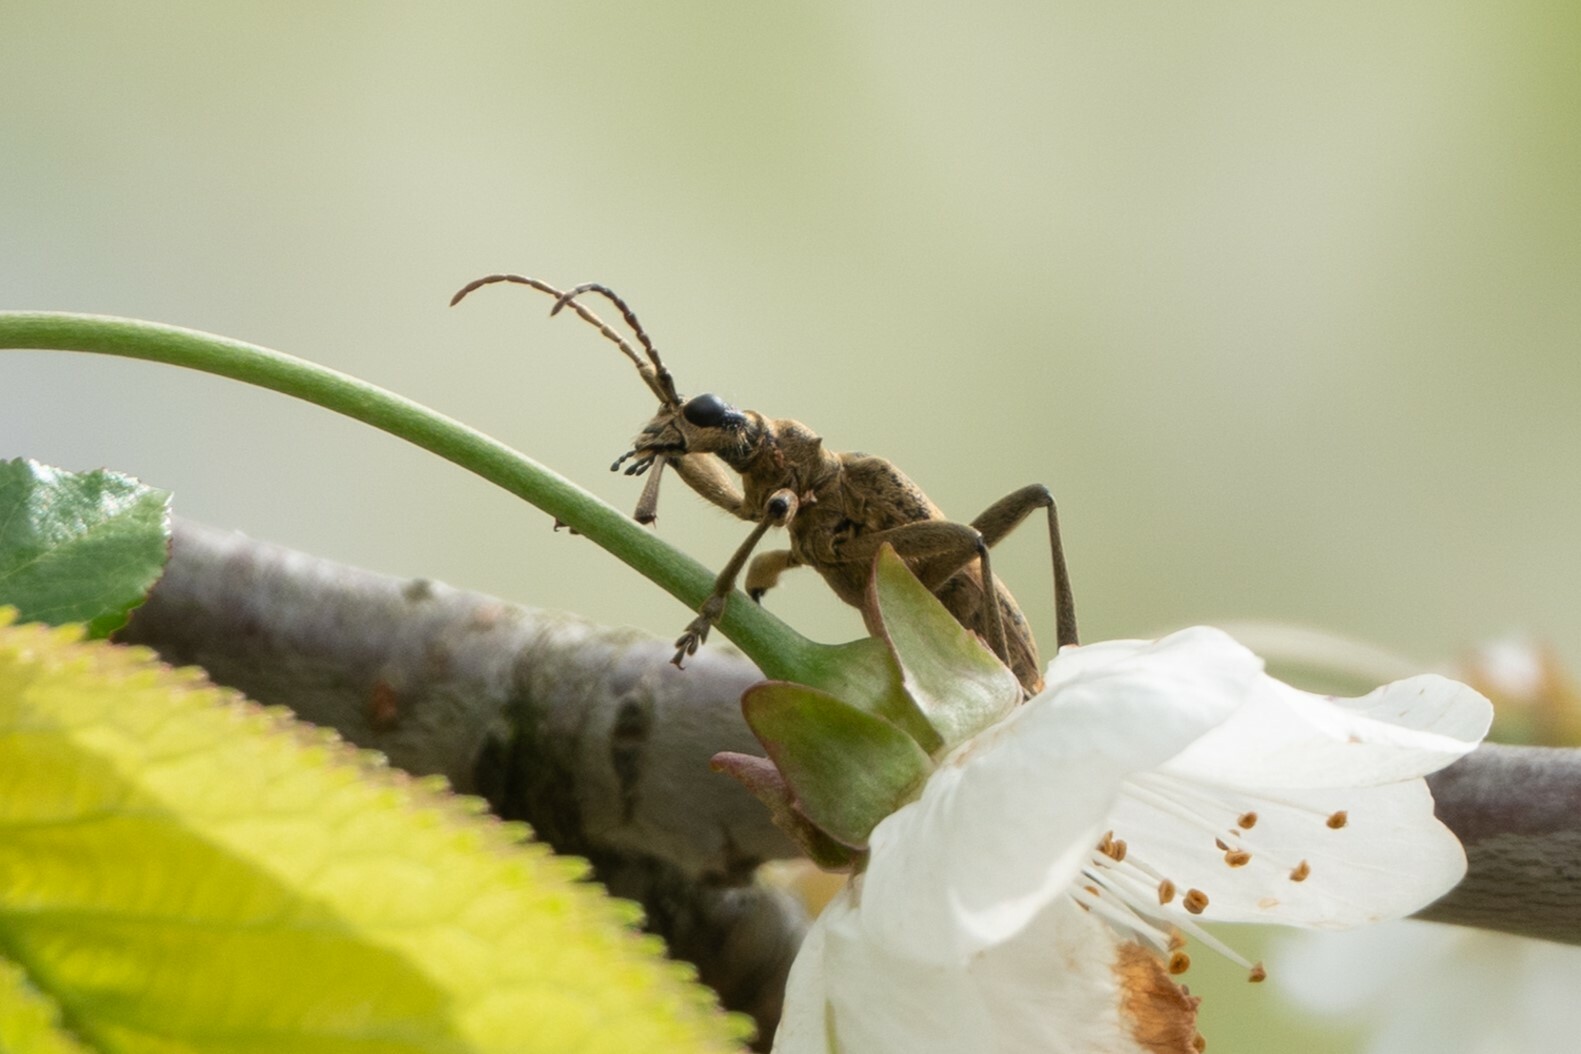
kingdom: Animalia
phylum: Arthropoda
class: Insecta
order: Coleoptera
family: Cerambycidae
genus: Rhagium
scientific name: Rhagium mordax
